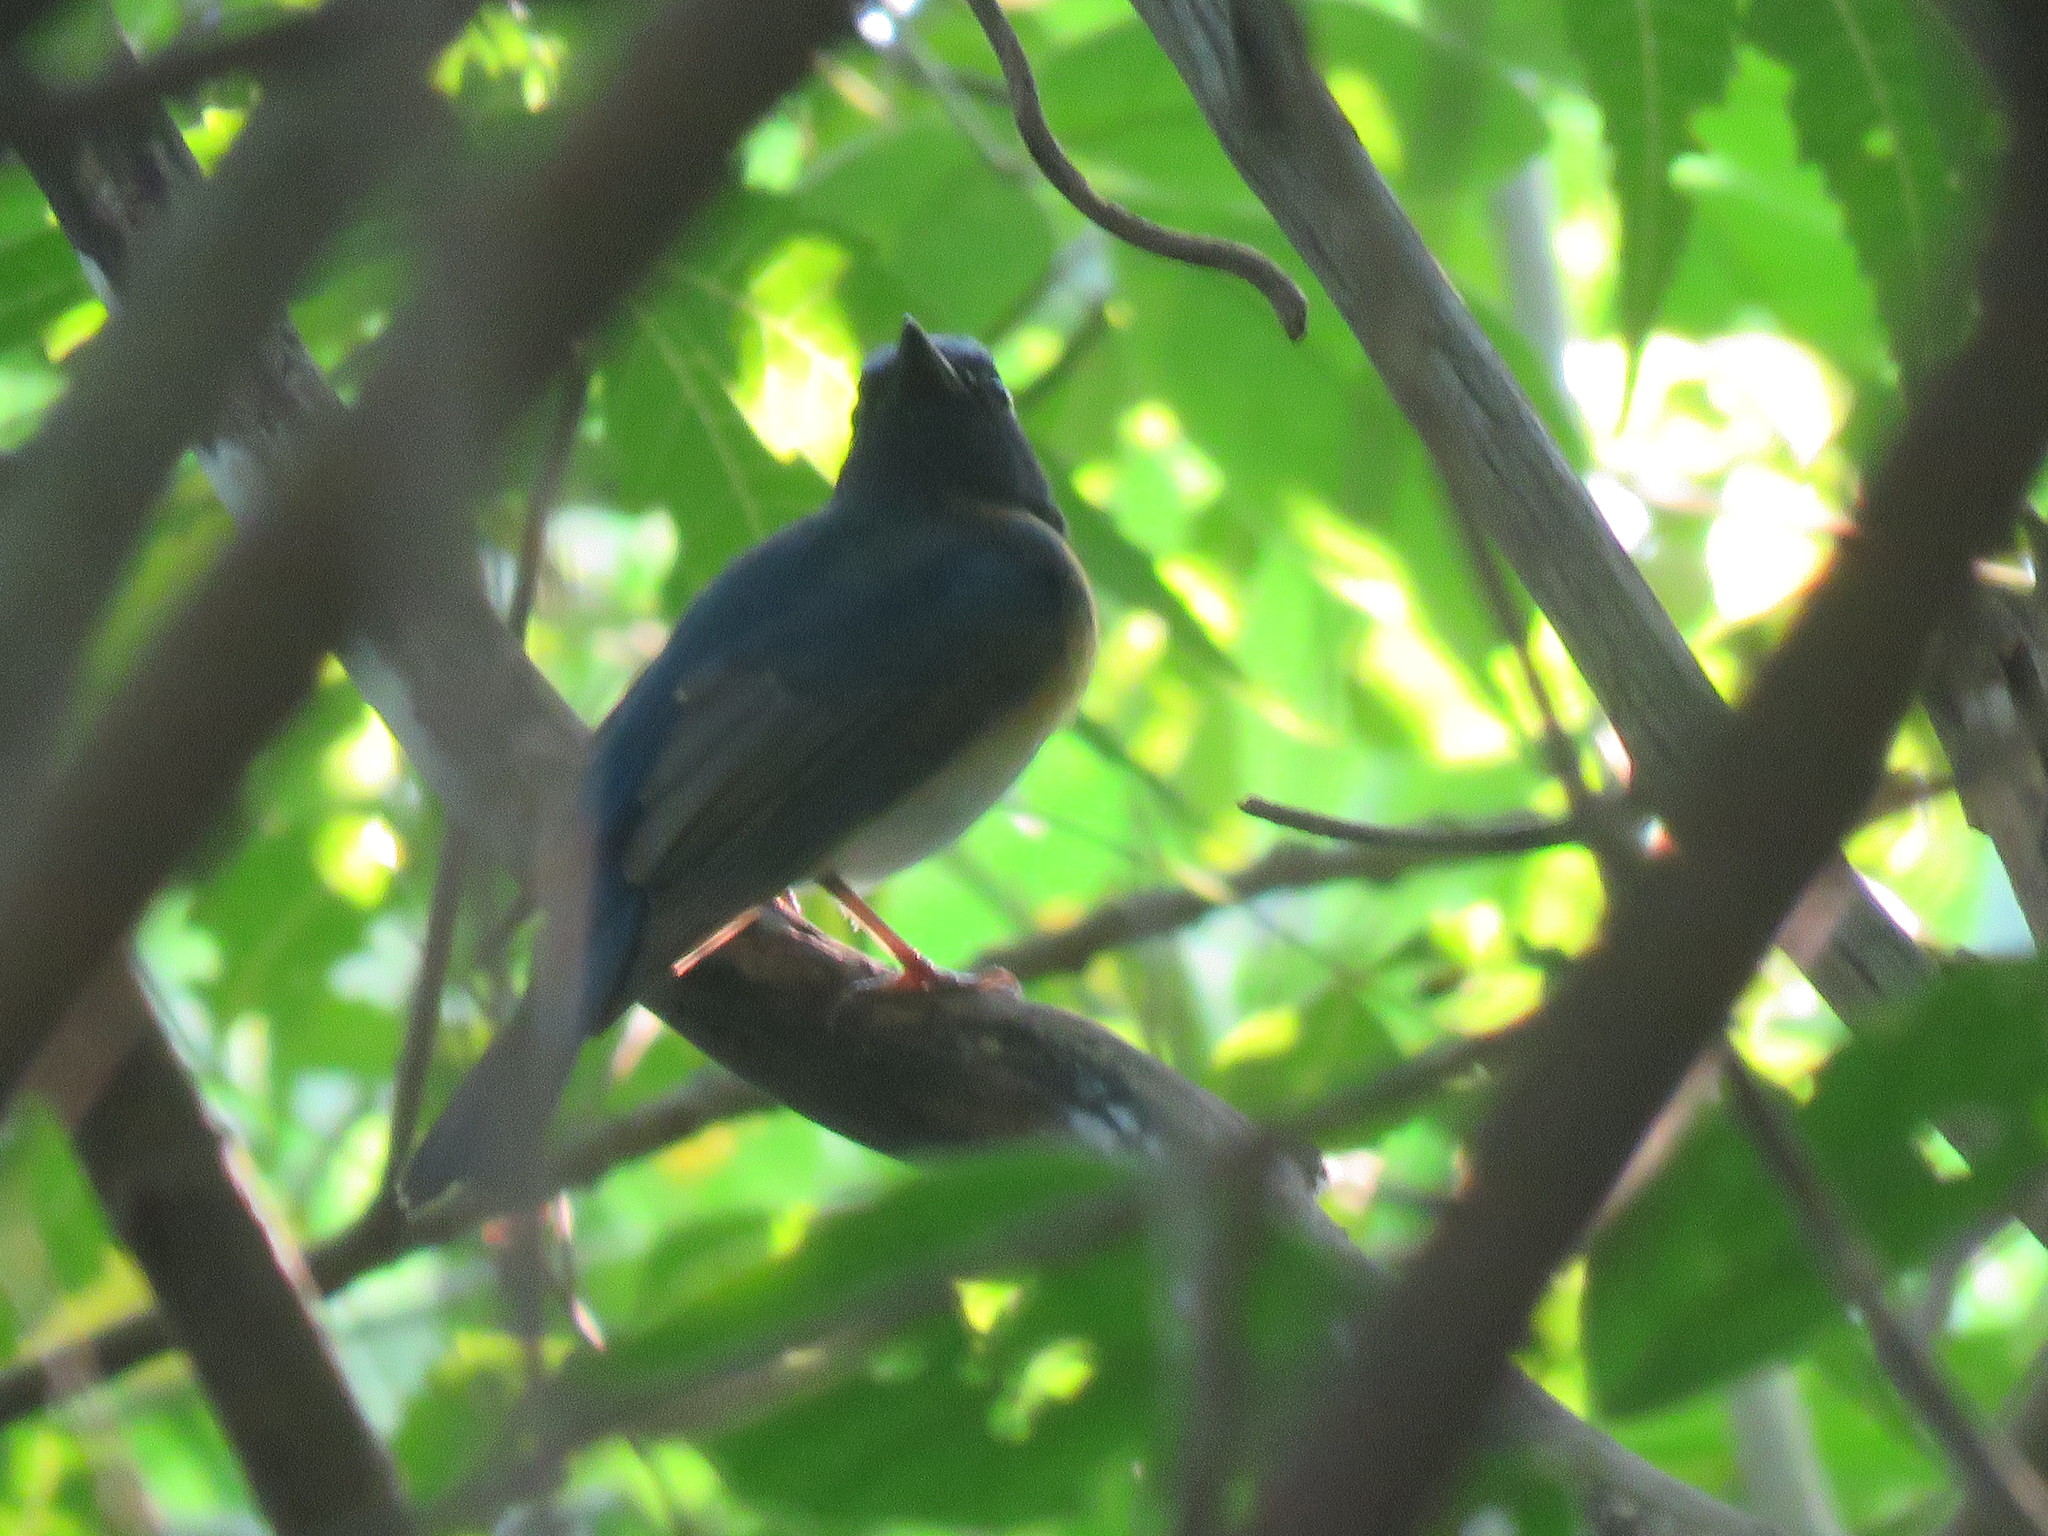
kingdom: Animalia
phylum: Chordata
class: Aves
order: Passeriformes
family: Muscicapidae
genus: Cyornis
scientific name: Cyornis rubeculoides
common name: Blue-throated blue flycatcher
